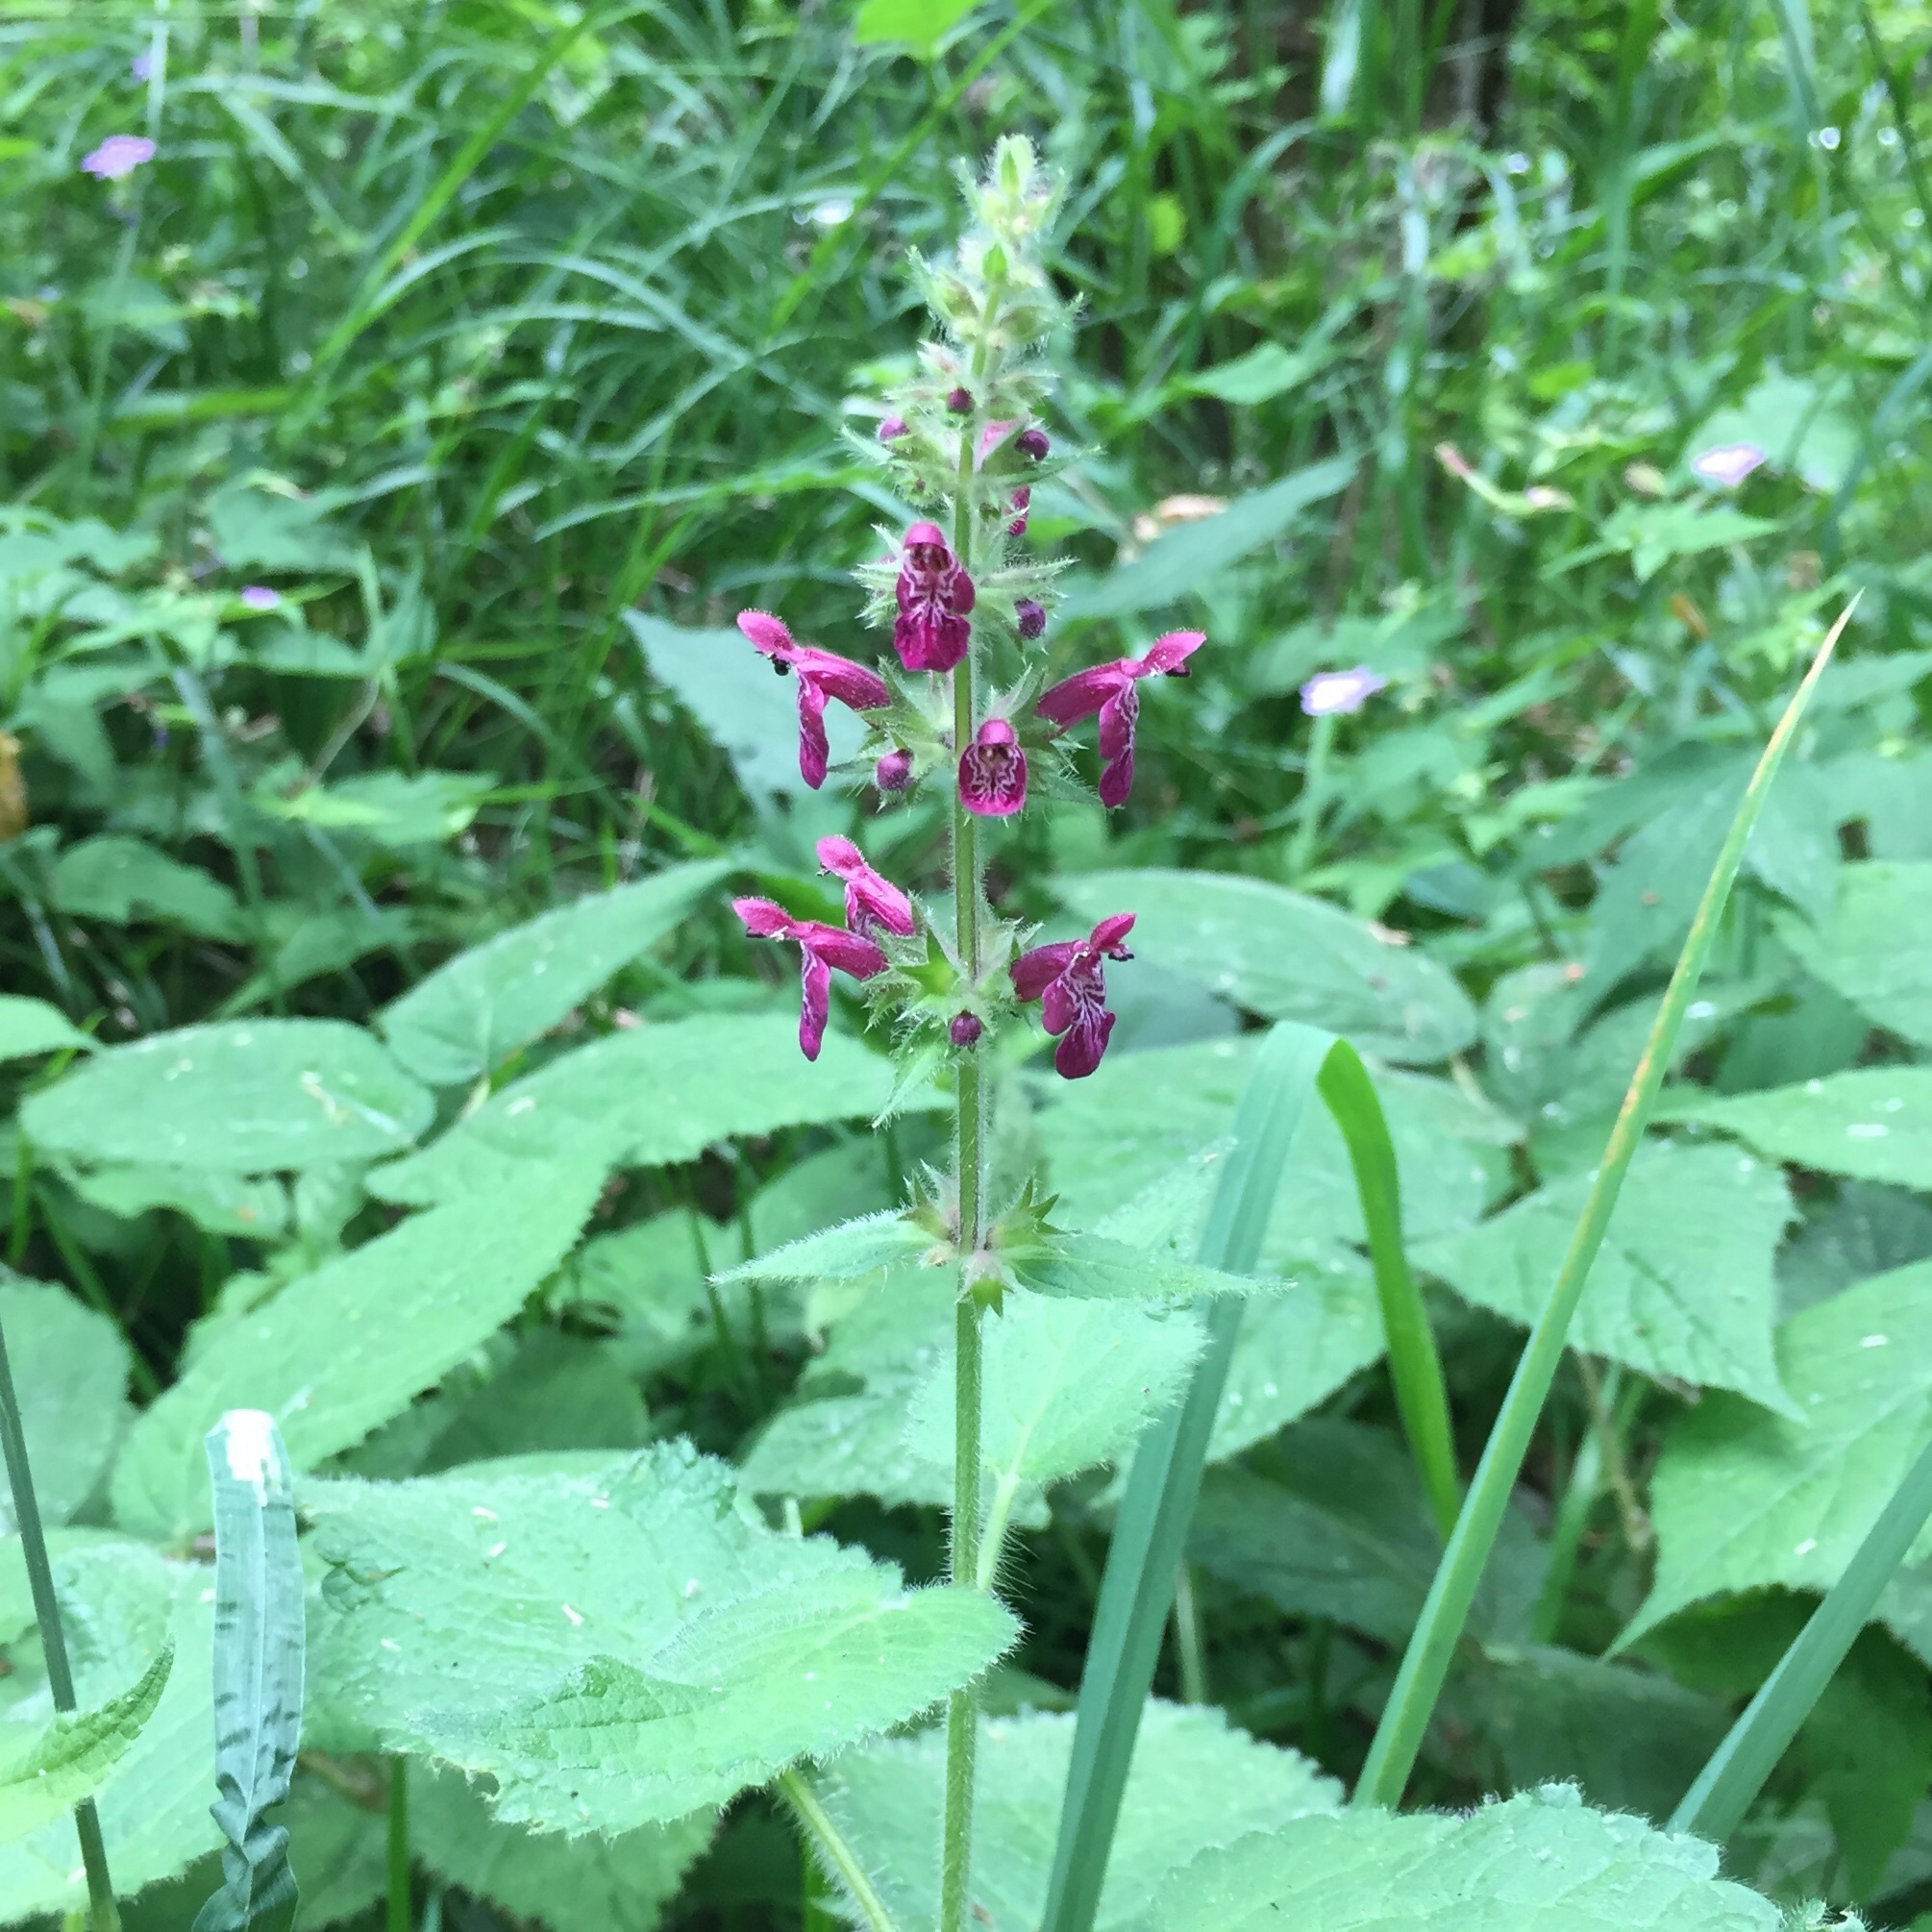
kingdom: Plantae
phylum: Tracheophyta
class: Magnoliopsida
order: Lamiales
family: Lamiaceae
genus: Stachys
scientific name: Stachys sylvatica
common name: Hedge woundwort
